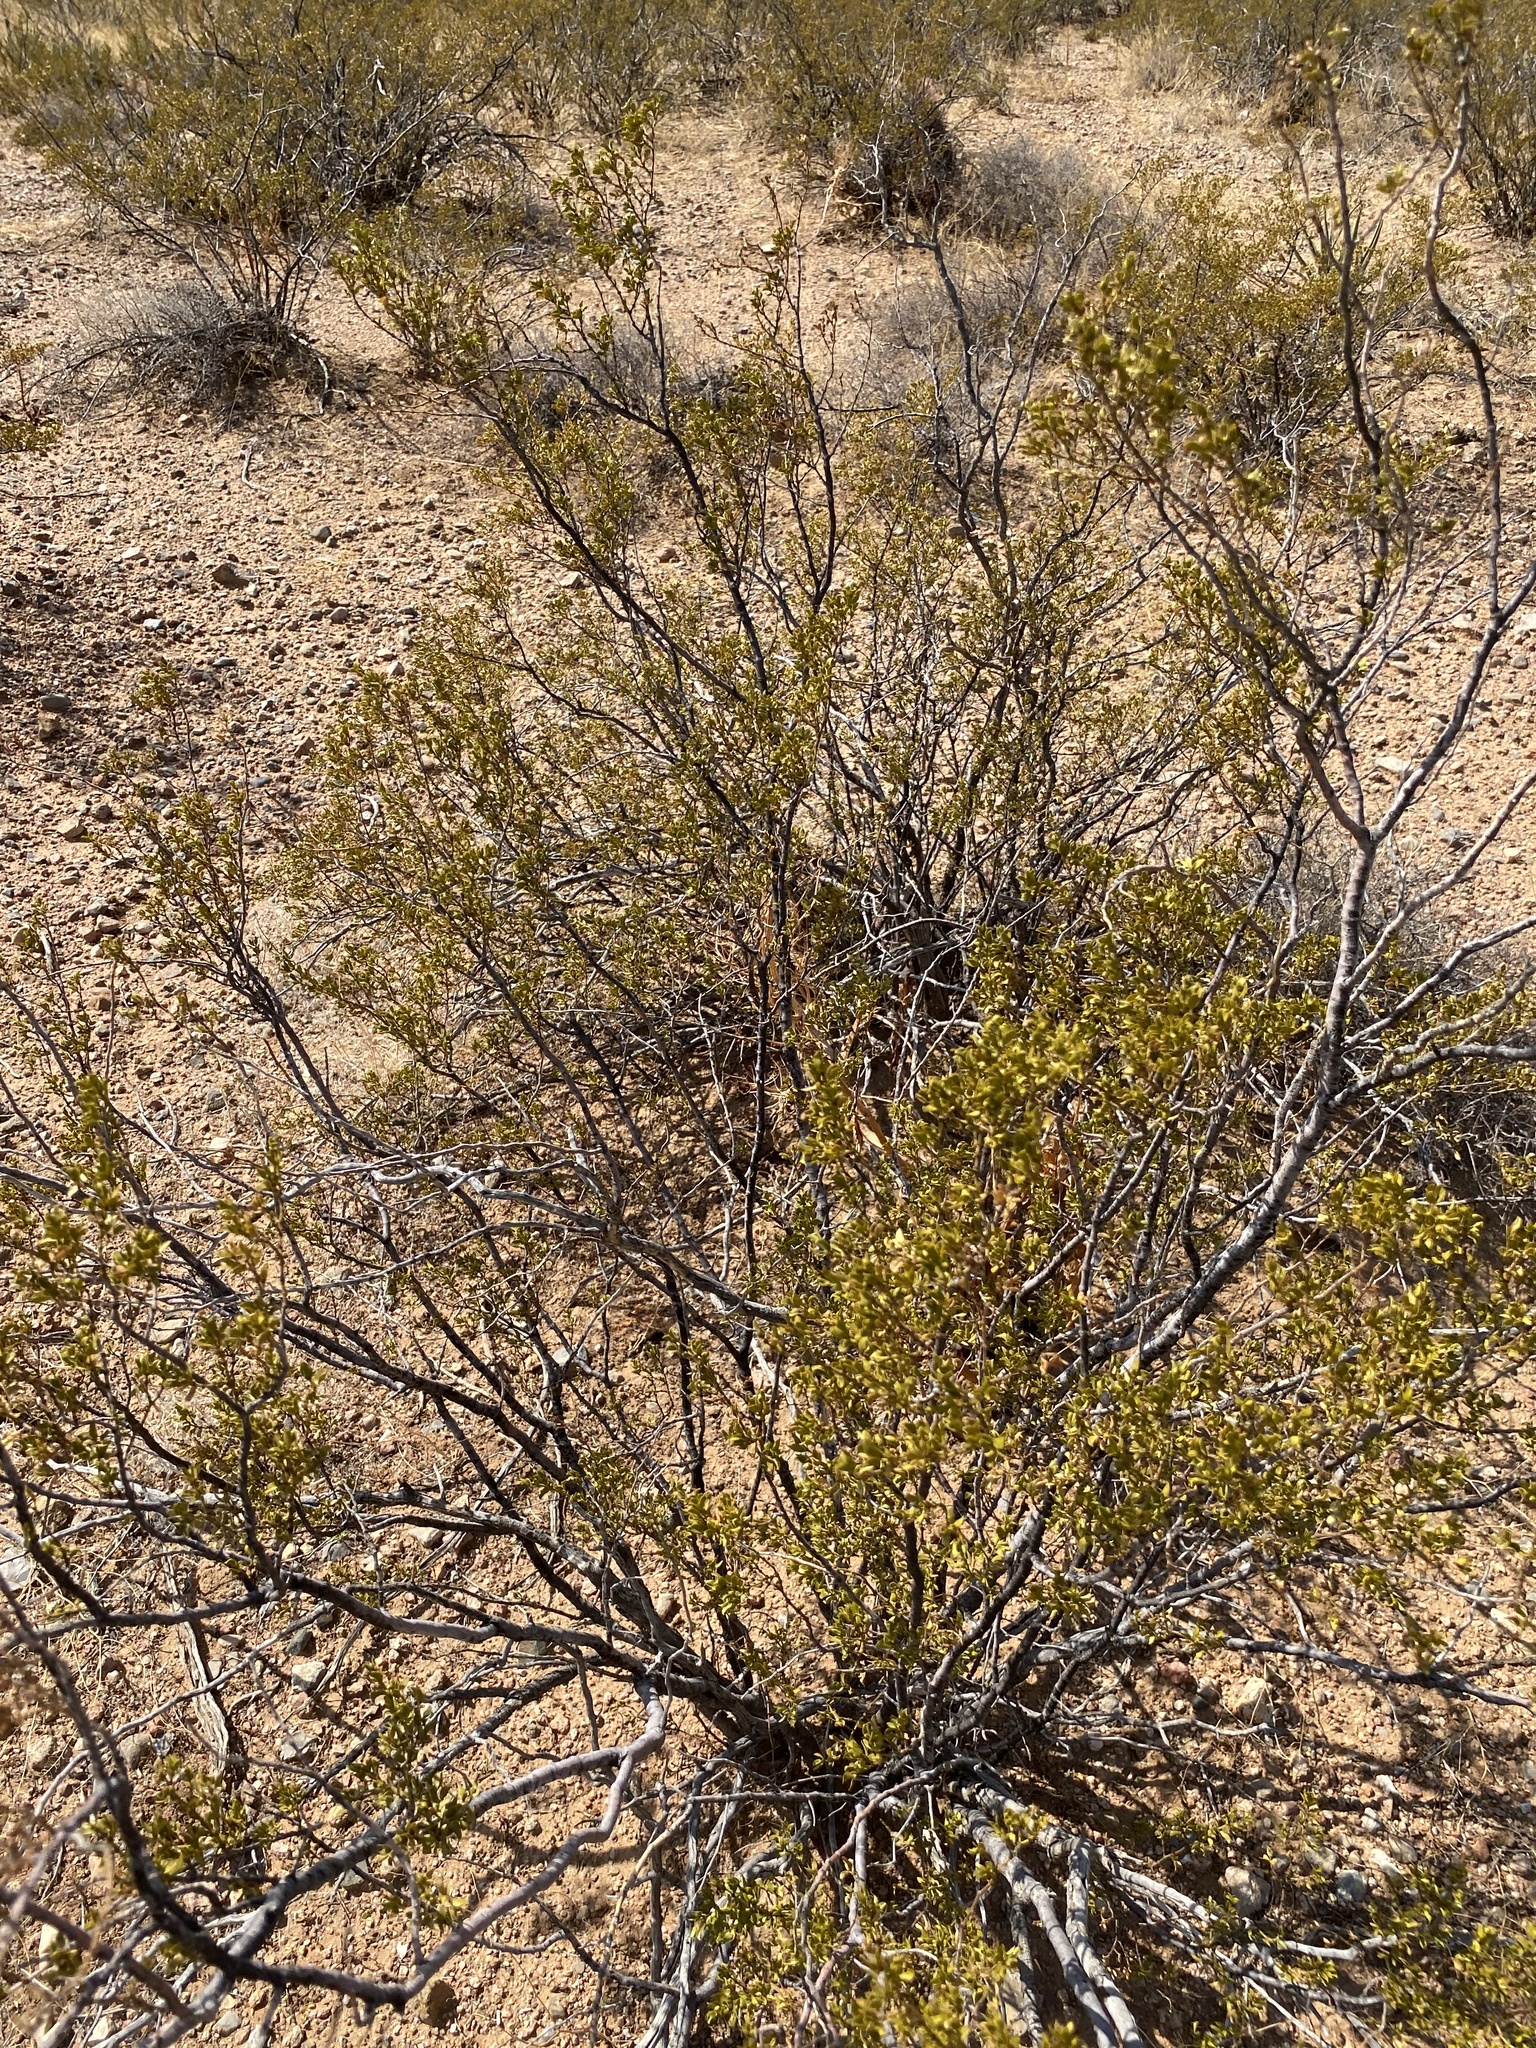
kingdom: Plantae
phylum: Tracheophyta
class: Magnoliopsida
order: Zygophyllales
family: Zygophyllaceae
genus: Larrea
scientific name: Larrea tridentata
